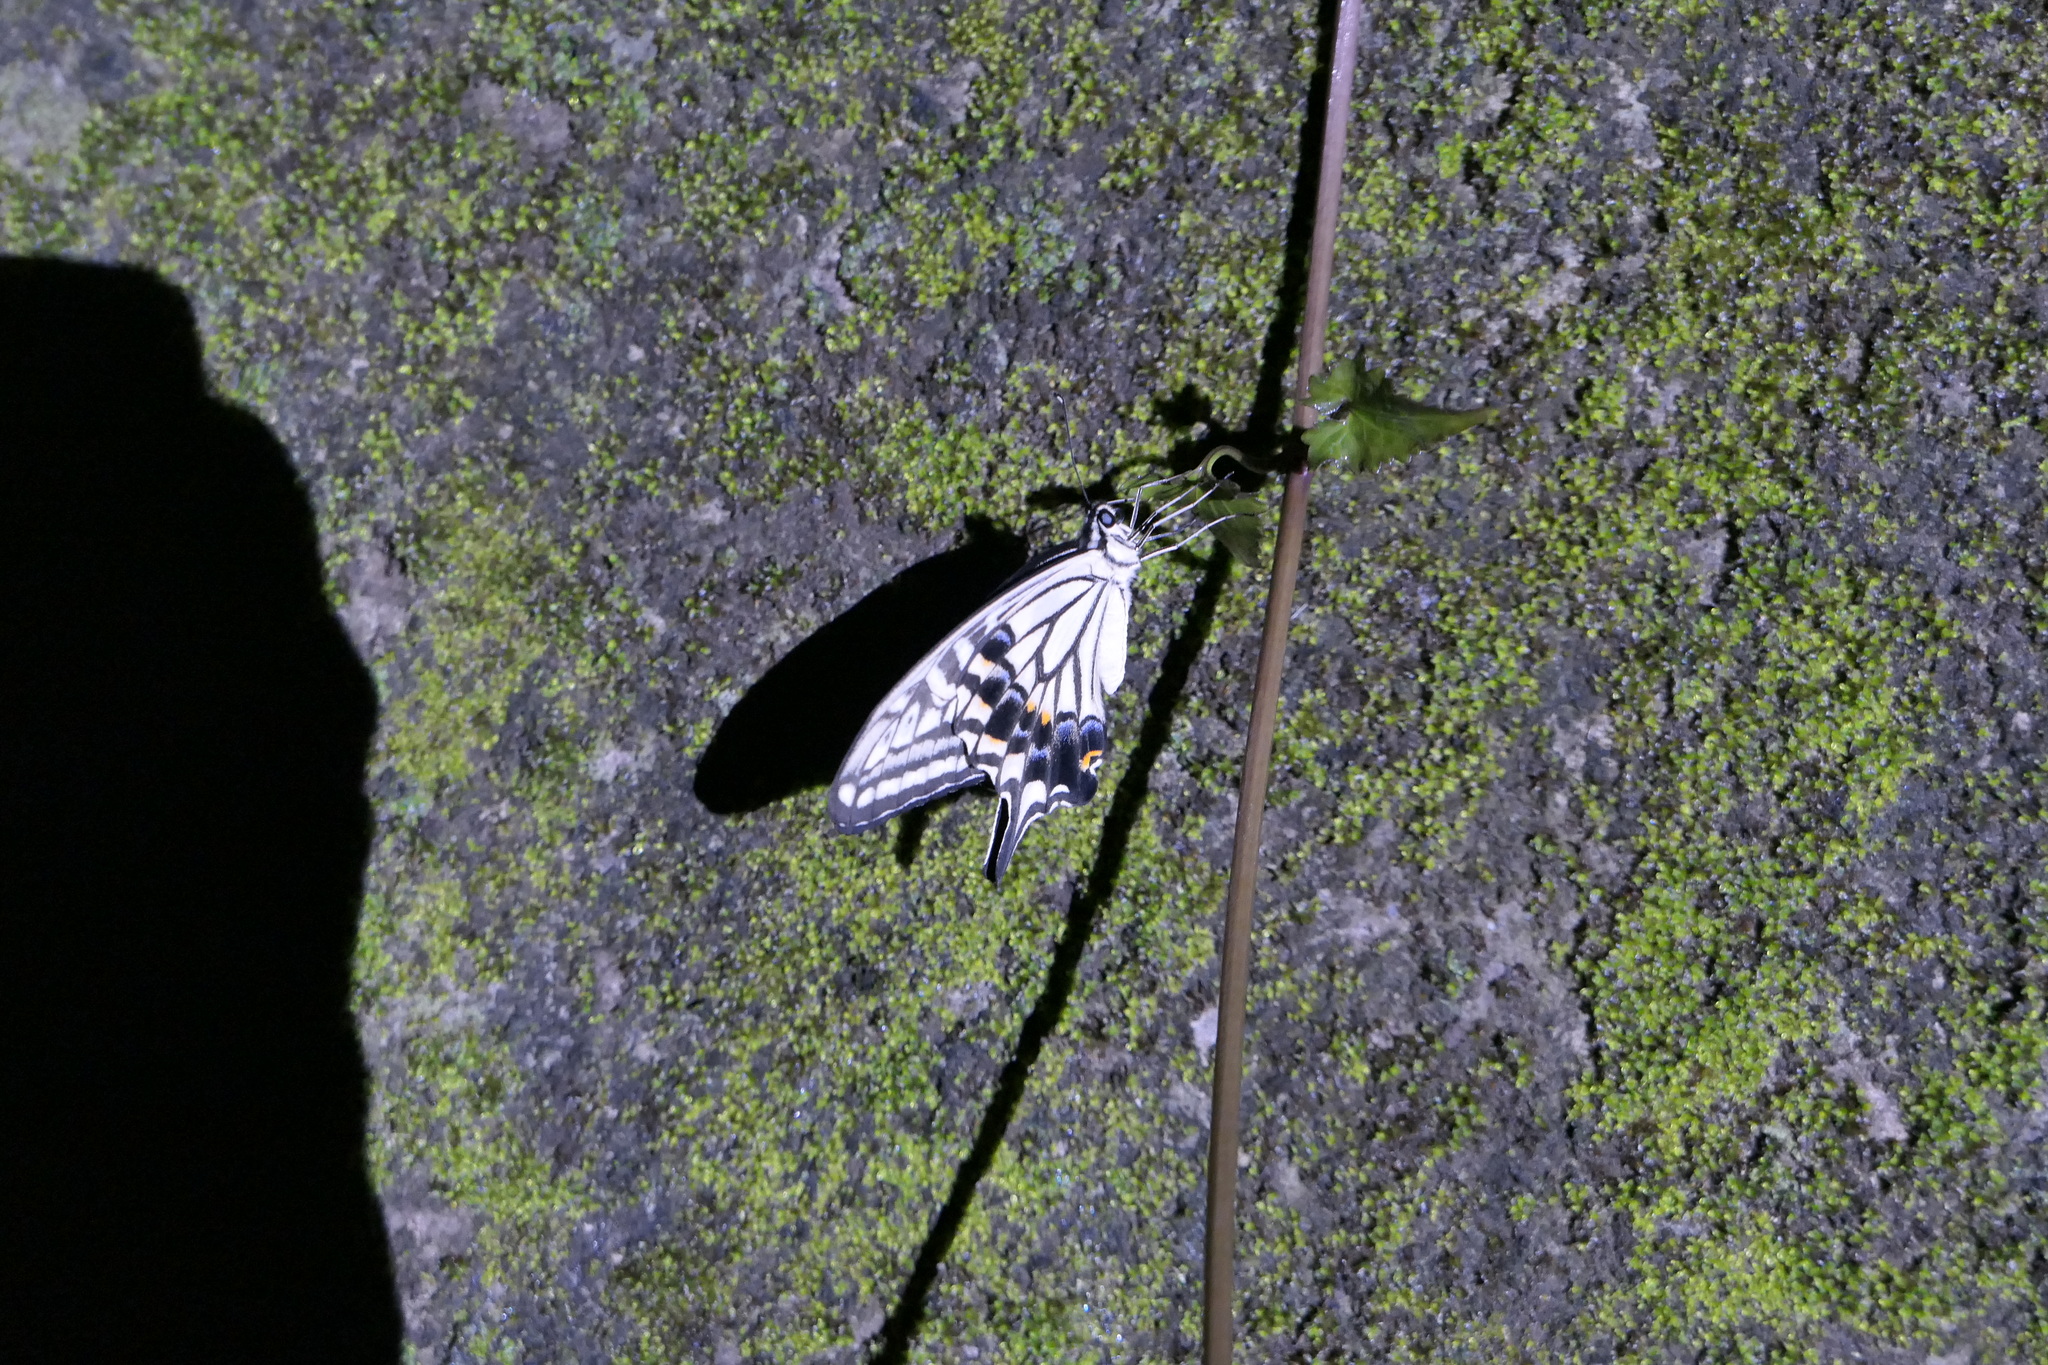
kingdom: Animalia
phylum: Arthropoda
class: Insecta
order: Lepidoptera
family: Papilionidae
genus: Papilio
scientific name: Papilio xuthus
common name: Asian swallowtail
